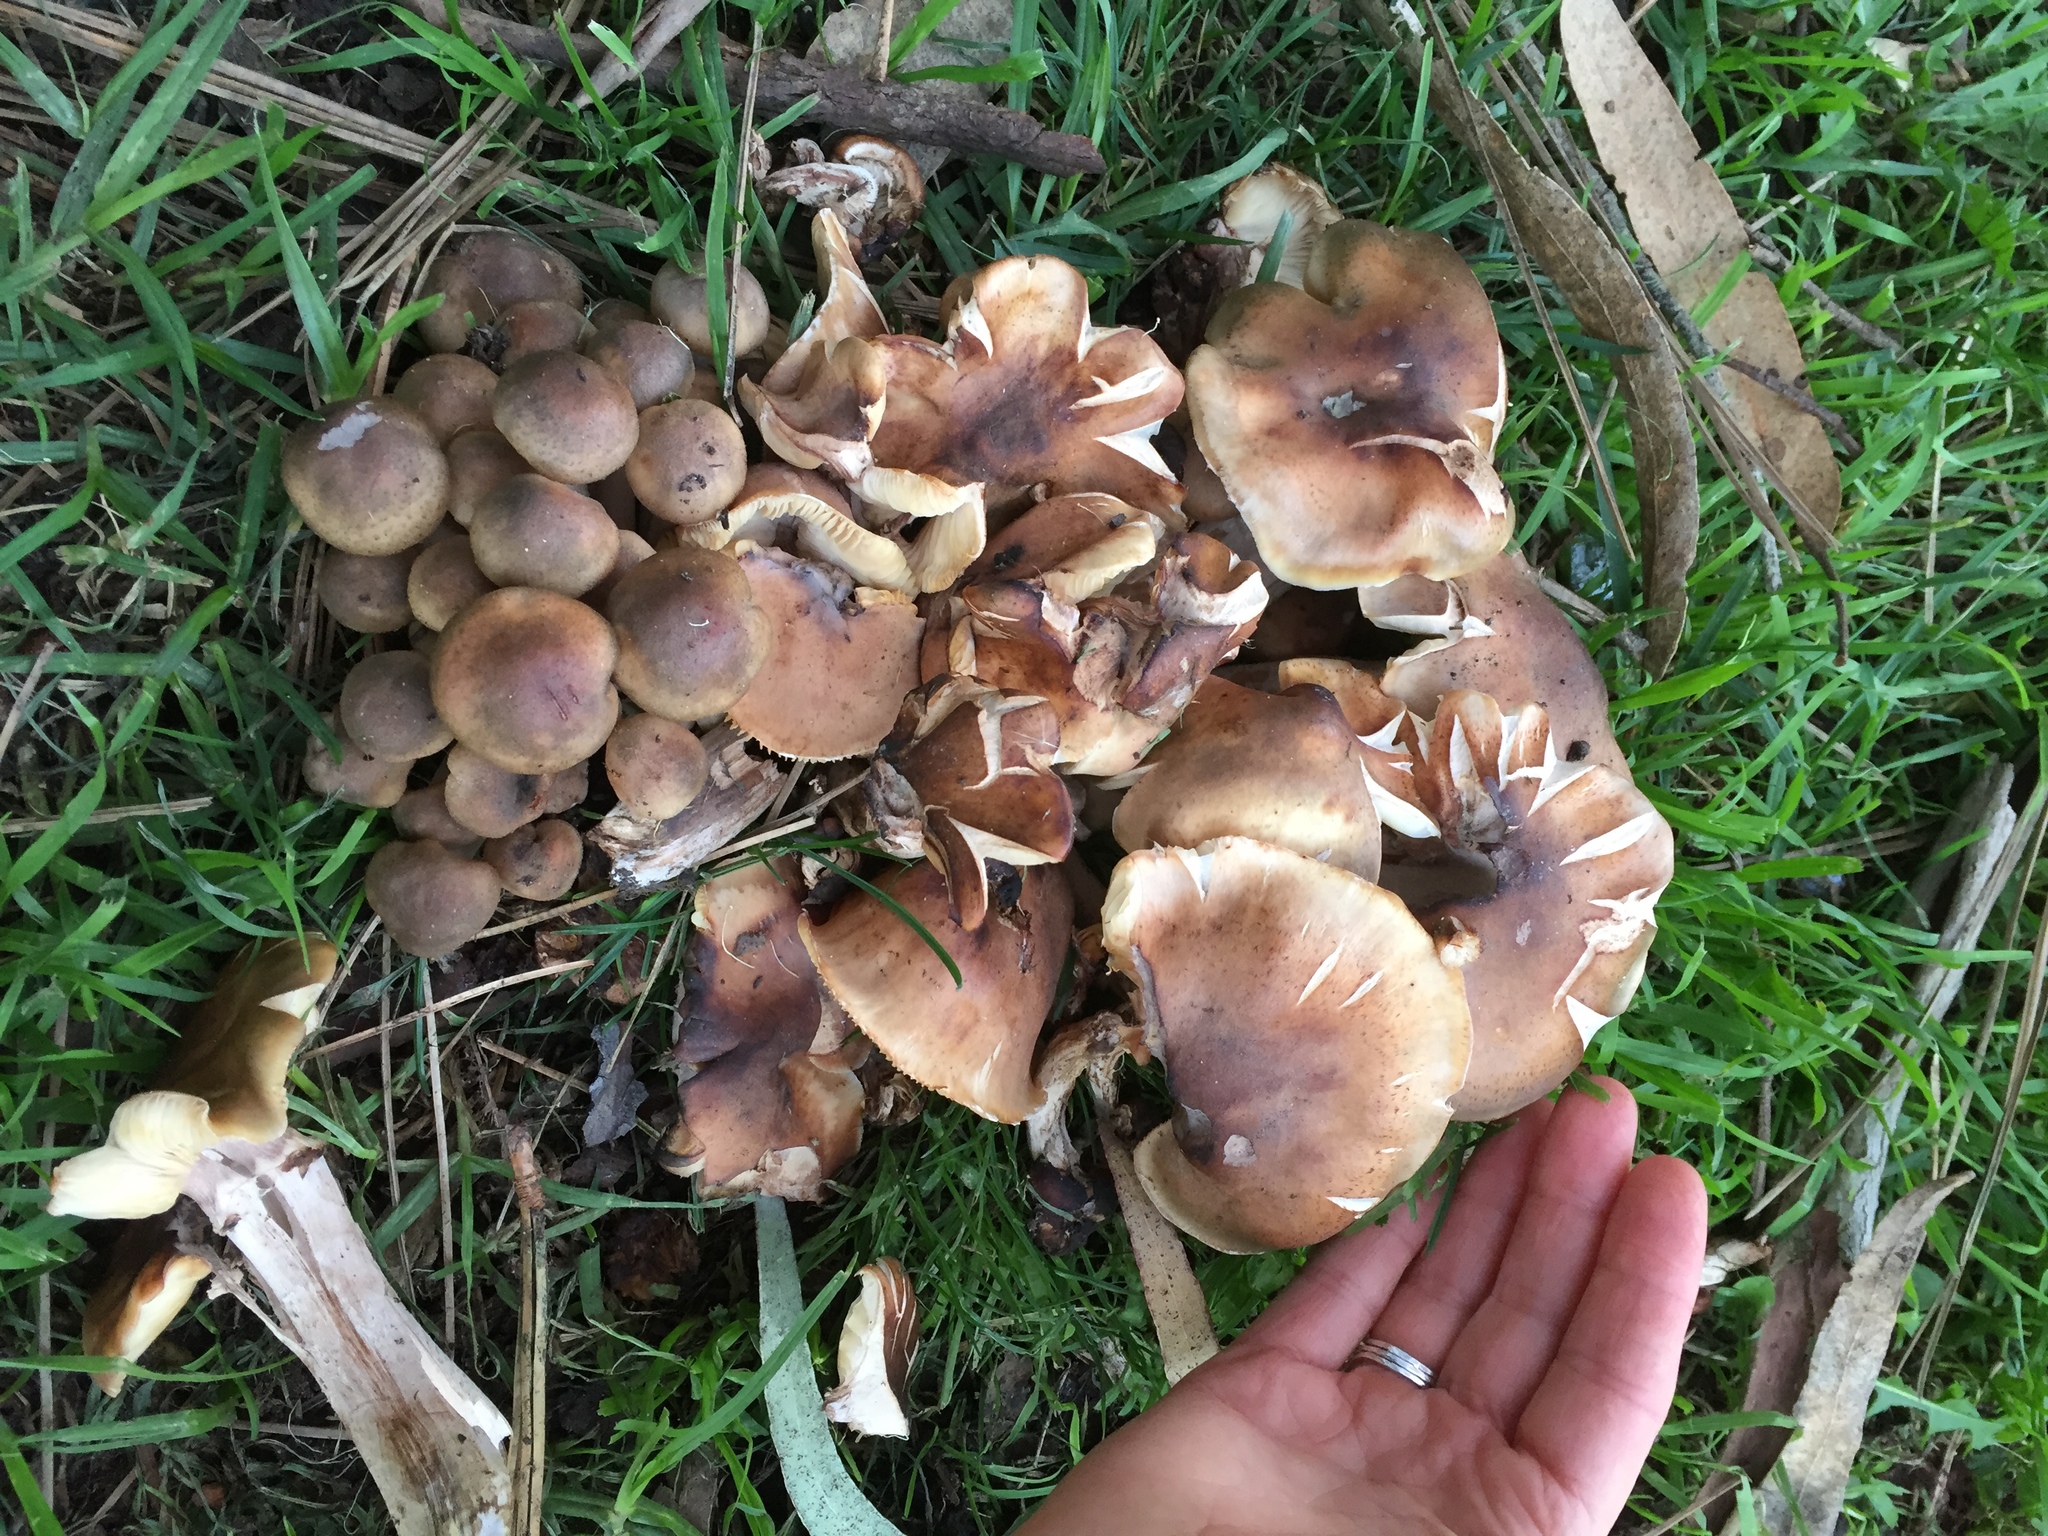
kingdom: Fungi
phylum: Basidiomycota
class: Agaricomycetes
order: Agaricales
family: Physalacriaceae
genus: Armillaria
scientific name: Armillaria mellea
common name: Honey fungus
